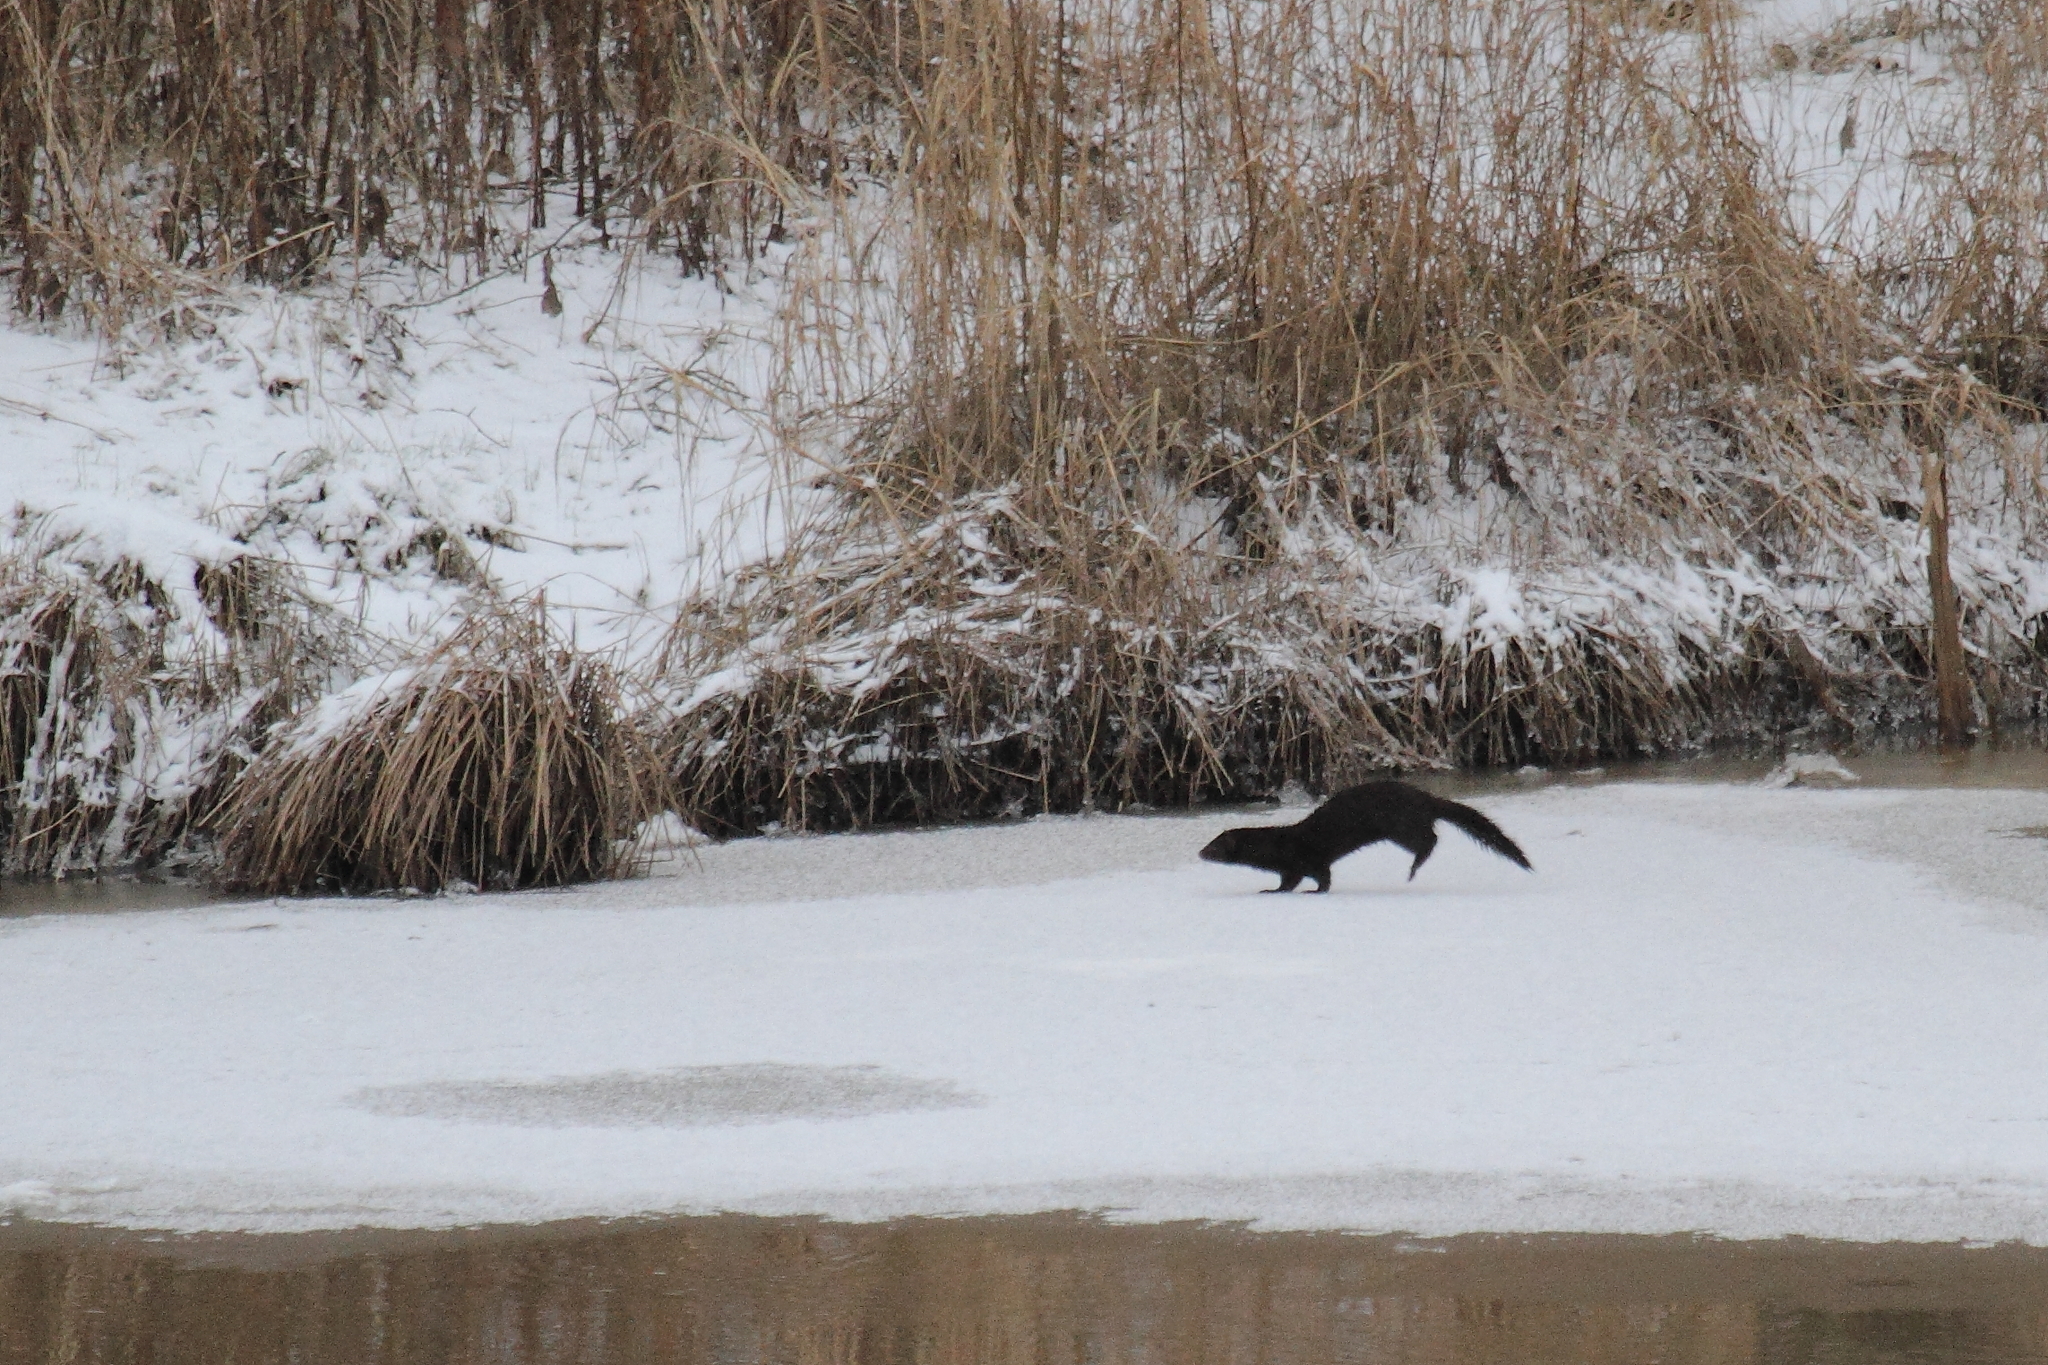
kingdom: Animalia
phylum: Chordata
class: Mammalia
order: Carnivora
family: Mustelidae
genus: Mustela
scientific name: Mustela
